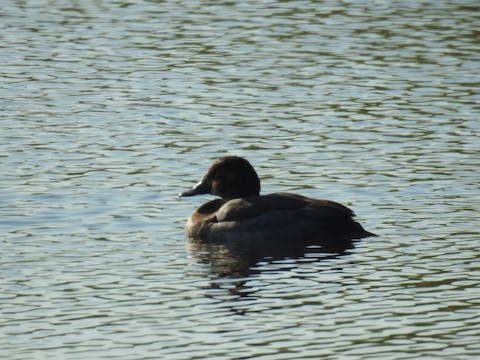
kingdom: Animalia
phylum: Chordata
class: Aves
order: Anseriformes
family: Anatidae
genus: Aythya
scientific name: Aythya ferina
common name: Common pochard
